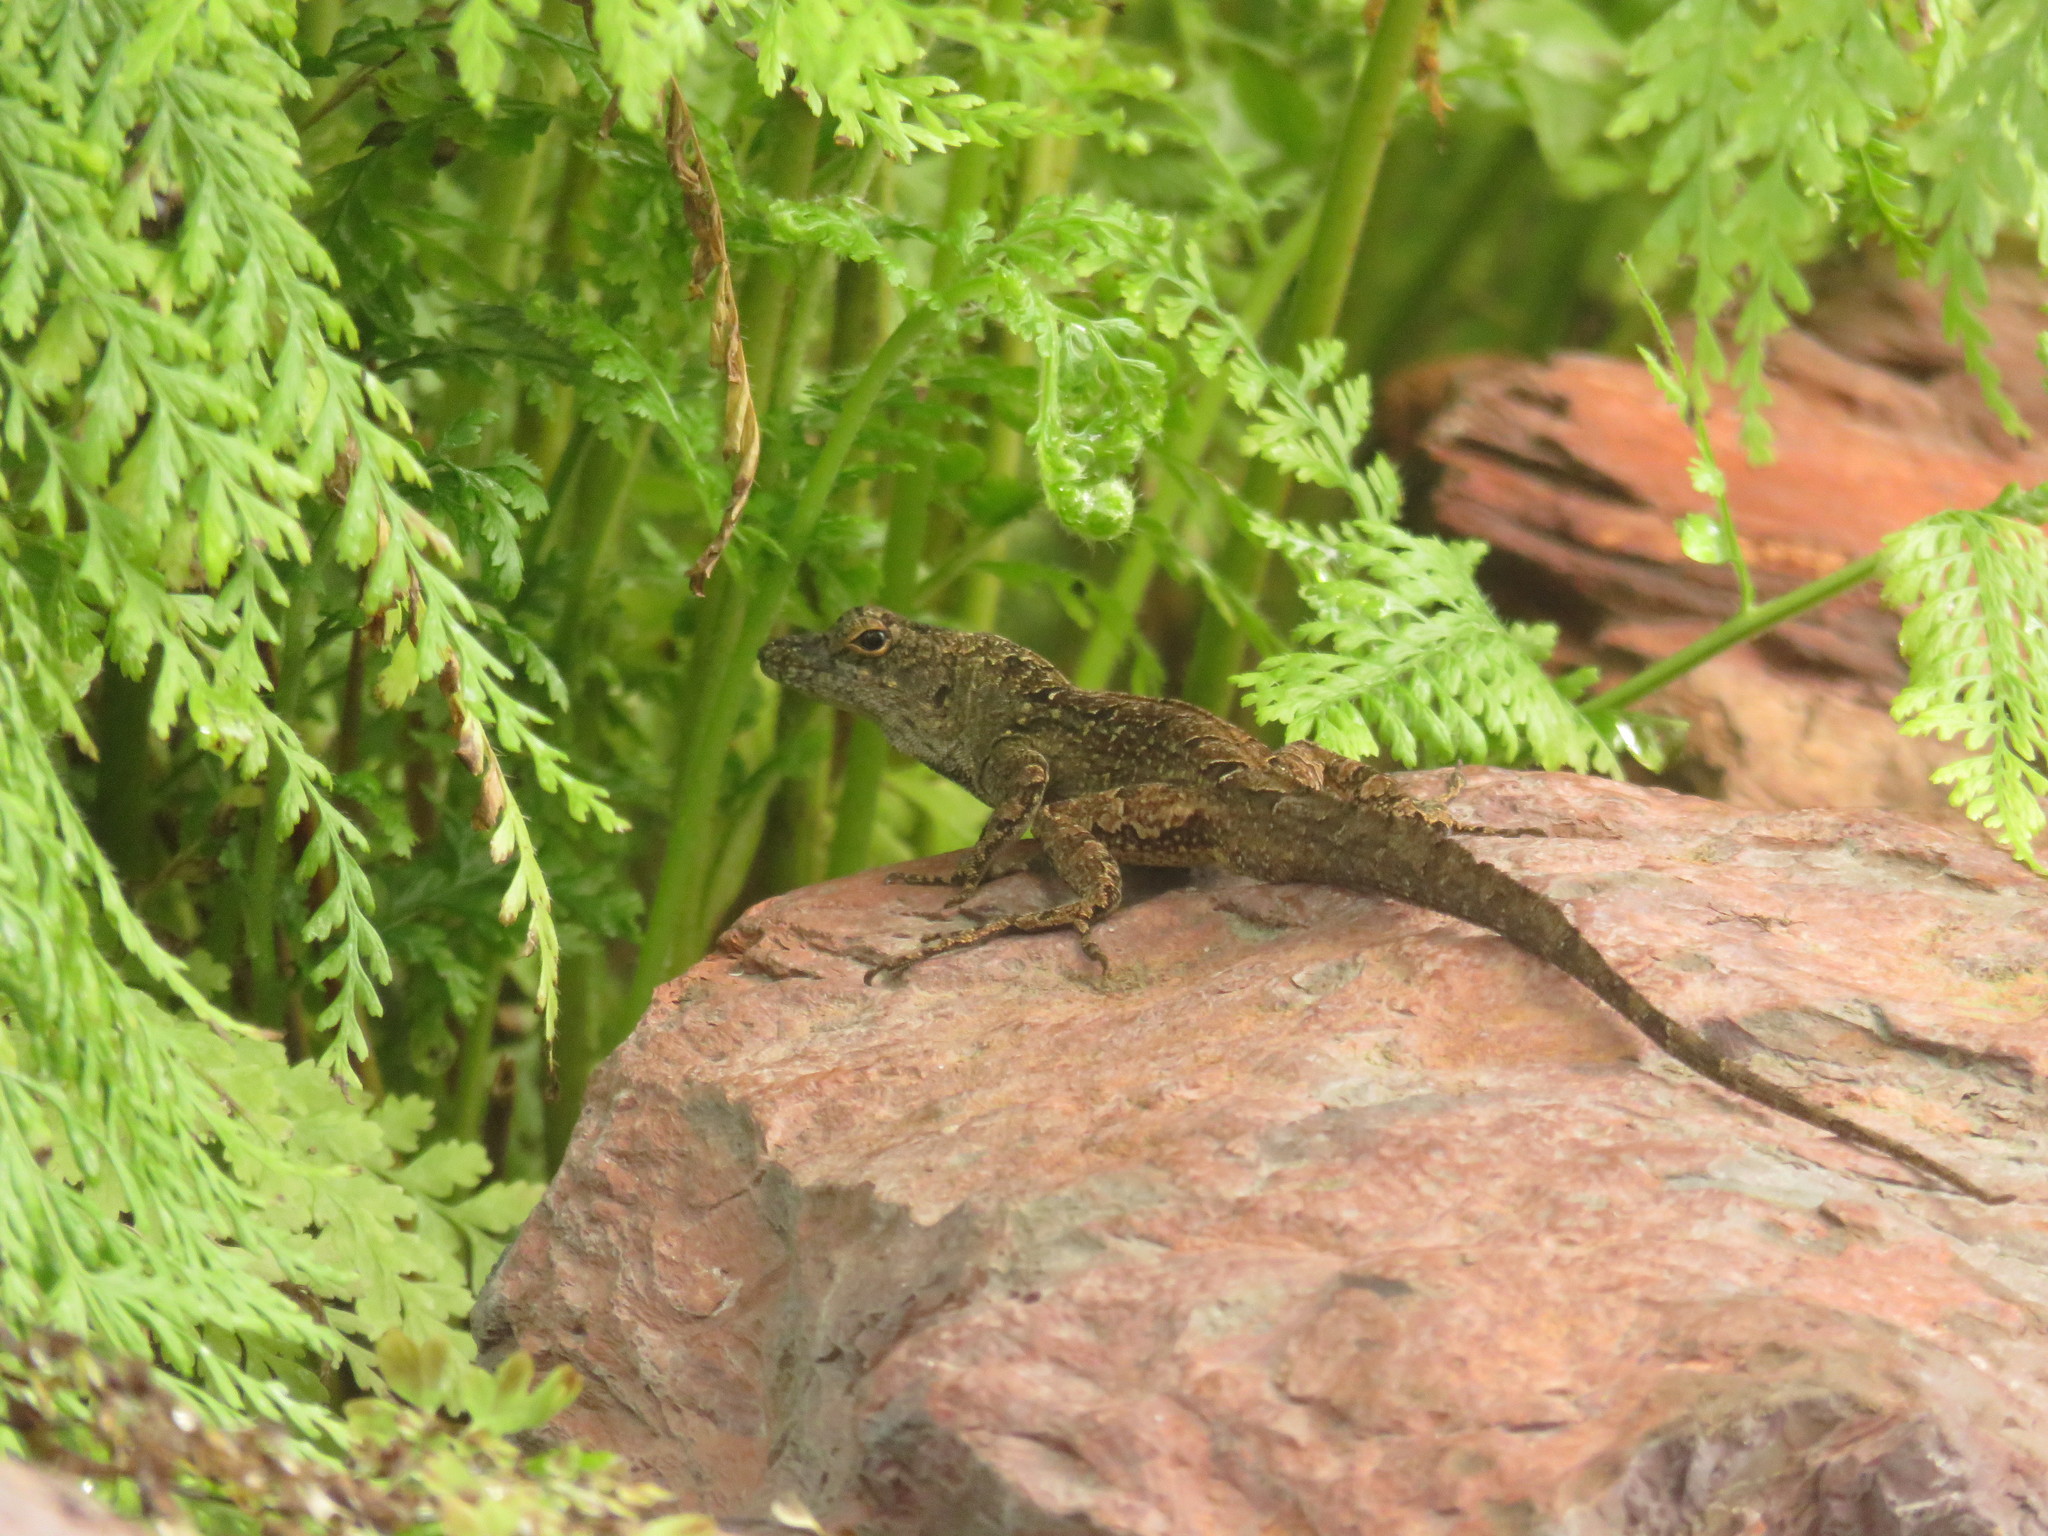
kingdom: Animalia
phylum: Chordata
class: Squamata
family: Dactyloidae
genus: Anolis
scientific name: Anolis sagrei
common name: Brown anole
